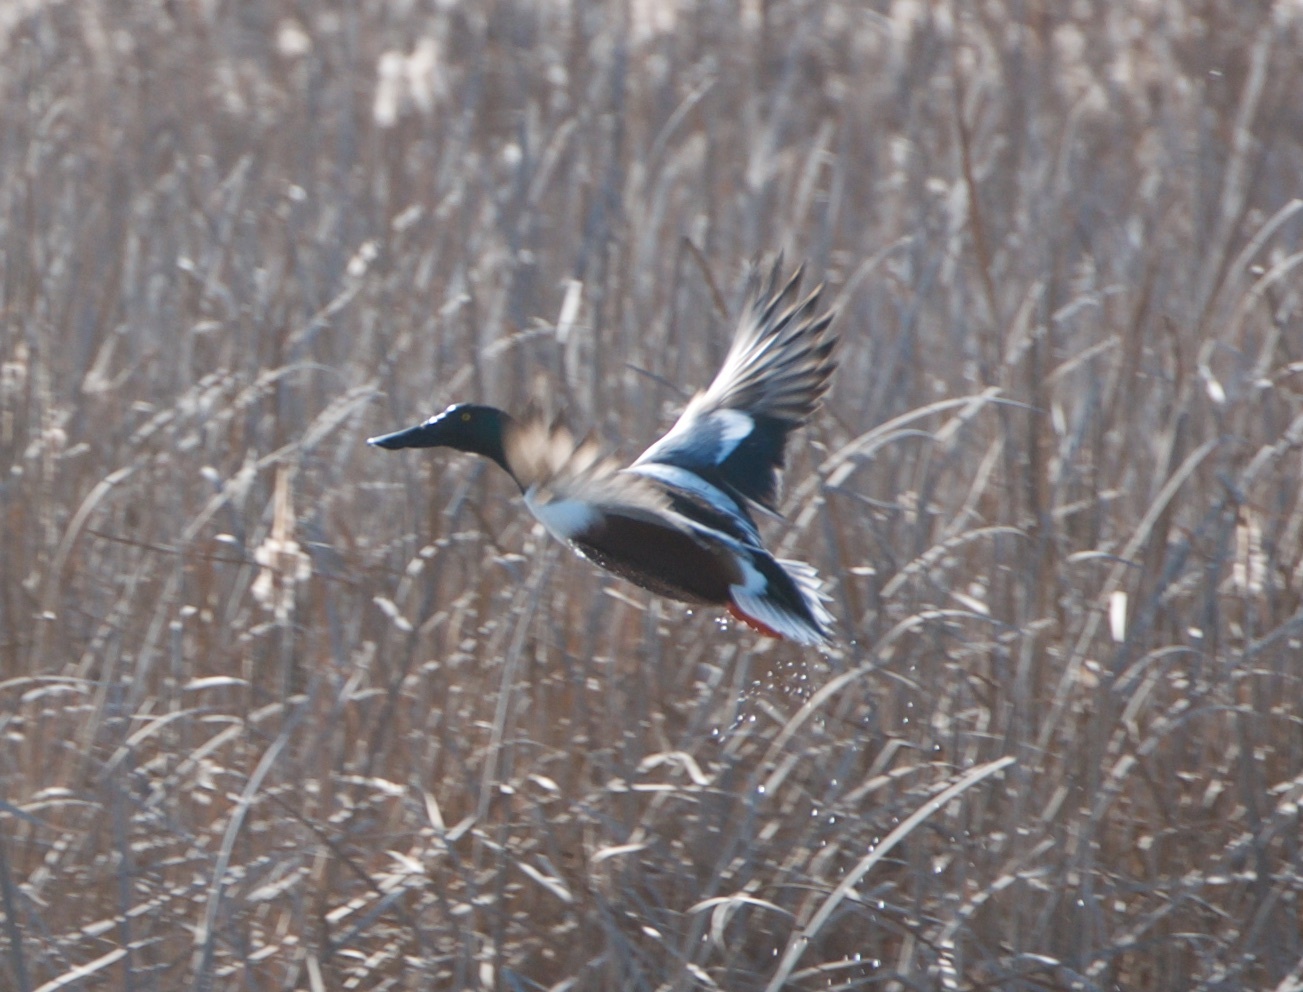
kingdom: Animalia
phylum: Chordata
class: Aves
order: Anseriformes
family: Anatidae
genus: Spatula
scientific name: Spatula clypeata
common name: Northern shoveler
